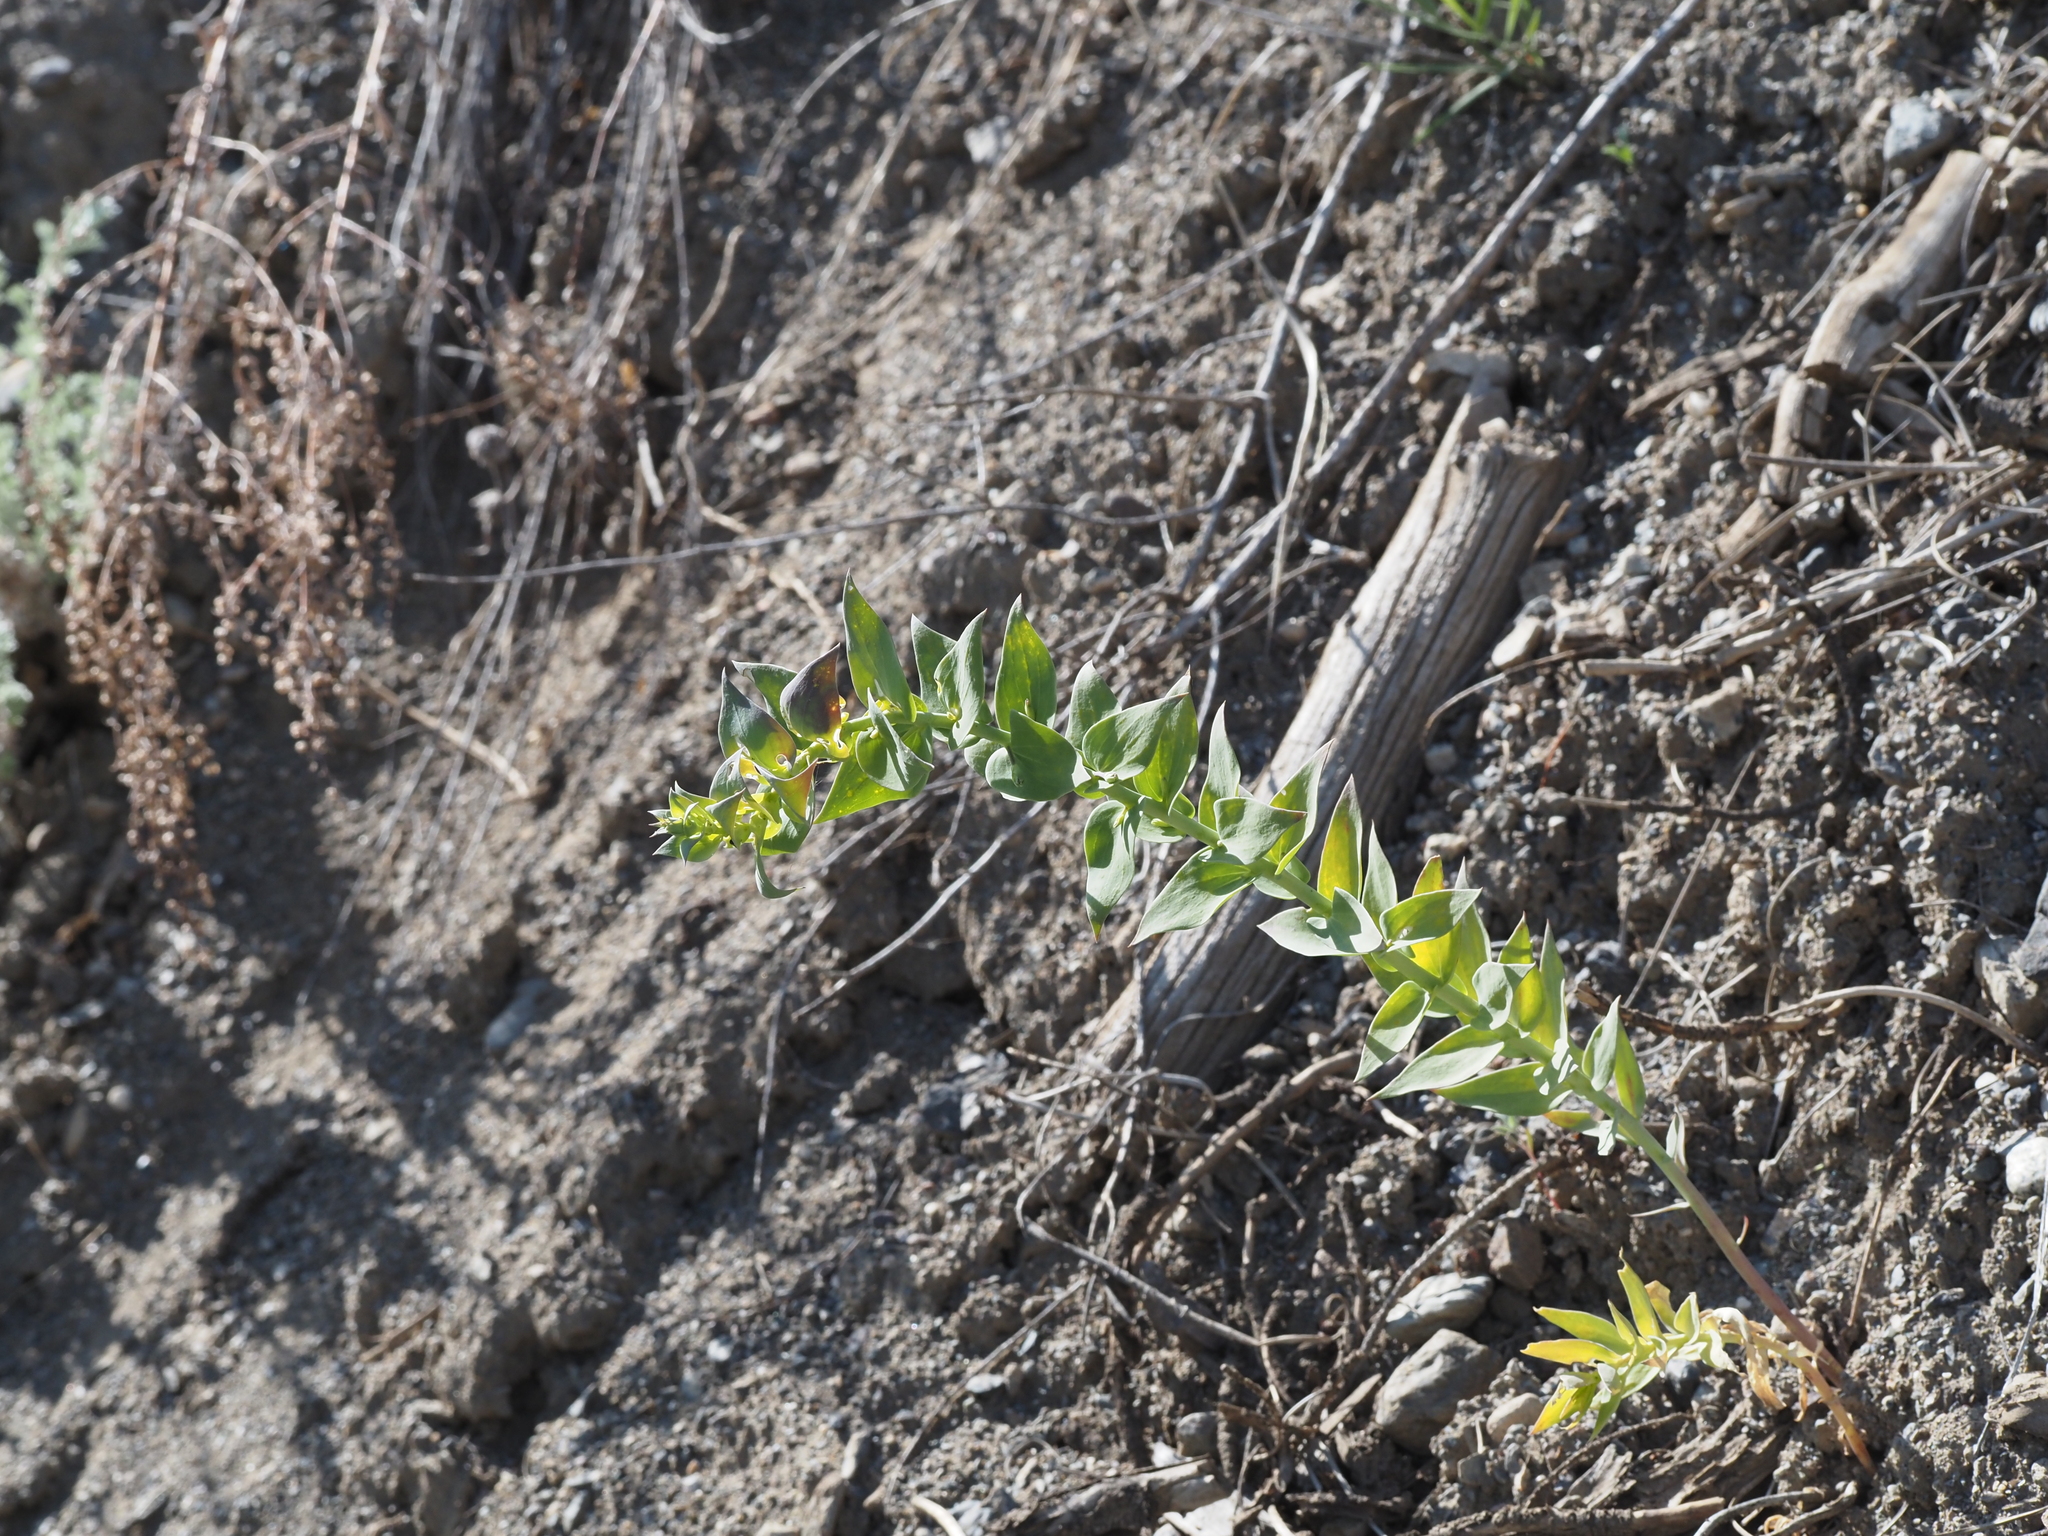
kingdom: Plantae
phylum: Tracheophyta
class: Magnoliopsida
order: Lamiales
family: Plantaginaceae
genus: Linaria
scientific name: Linaria dalmatica
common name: Dalmatian toadflax
